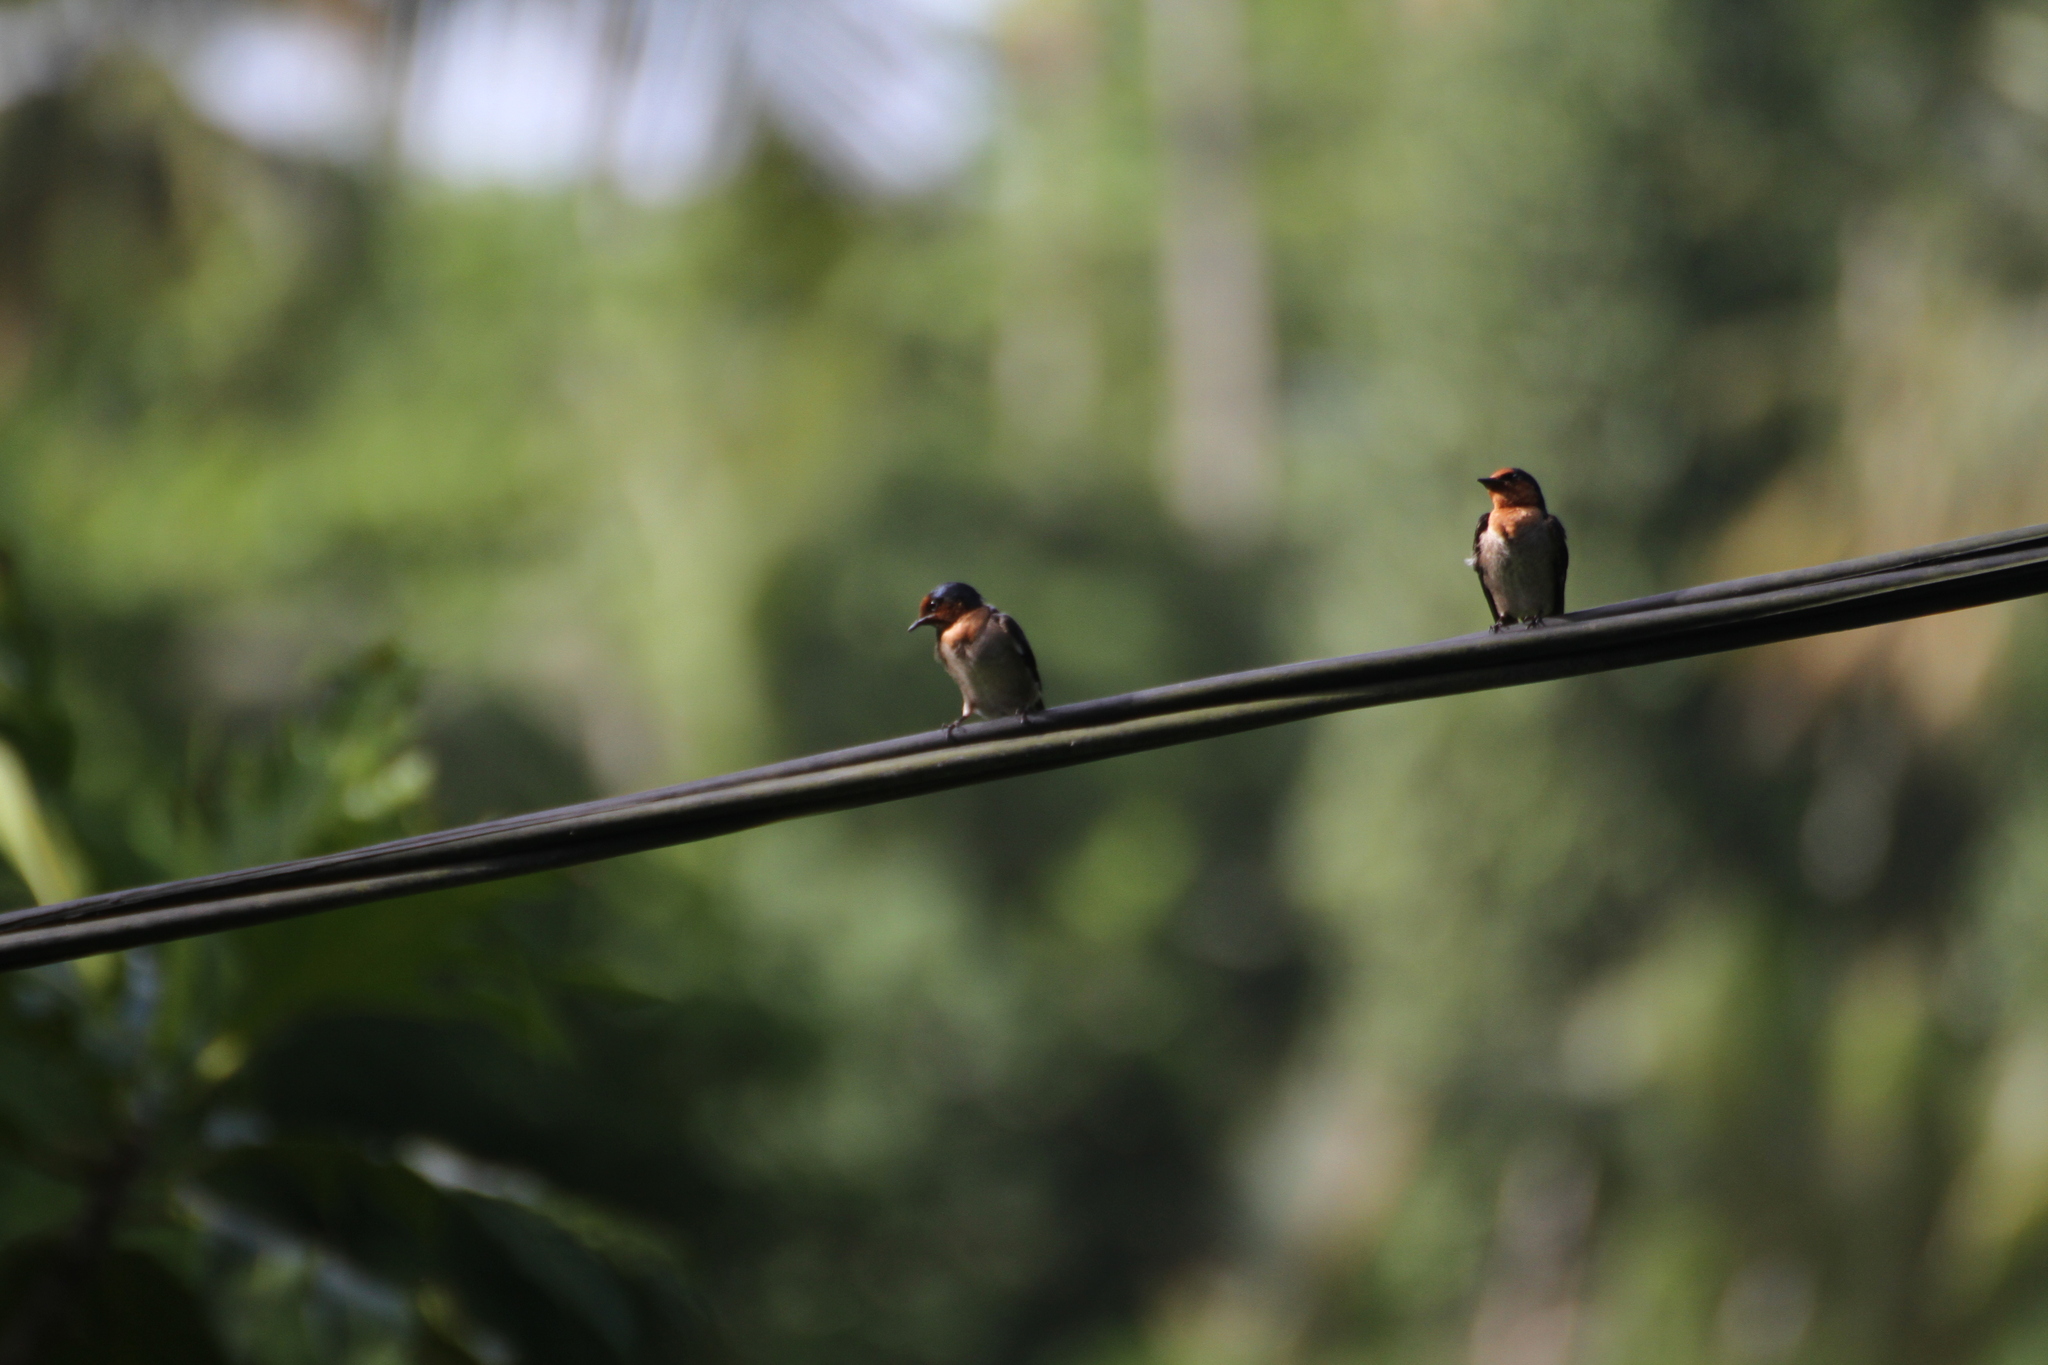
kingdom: Animalia
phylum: Chordata
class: Aves
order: Passeriformes
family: Hirundinidae
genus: Hirundo
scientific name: Hirundo tahitica
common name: Pacific swallow
